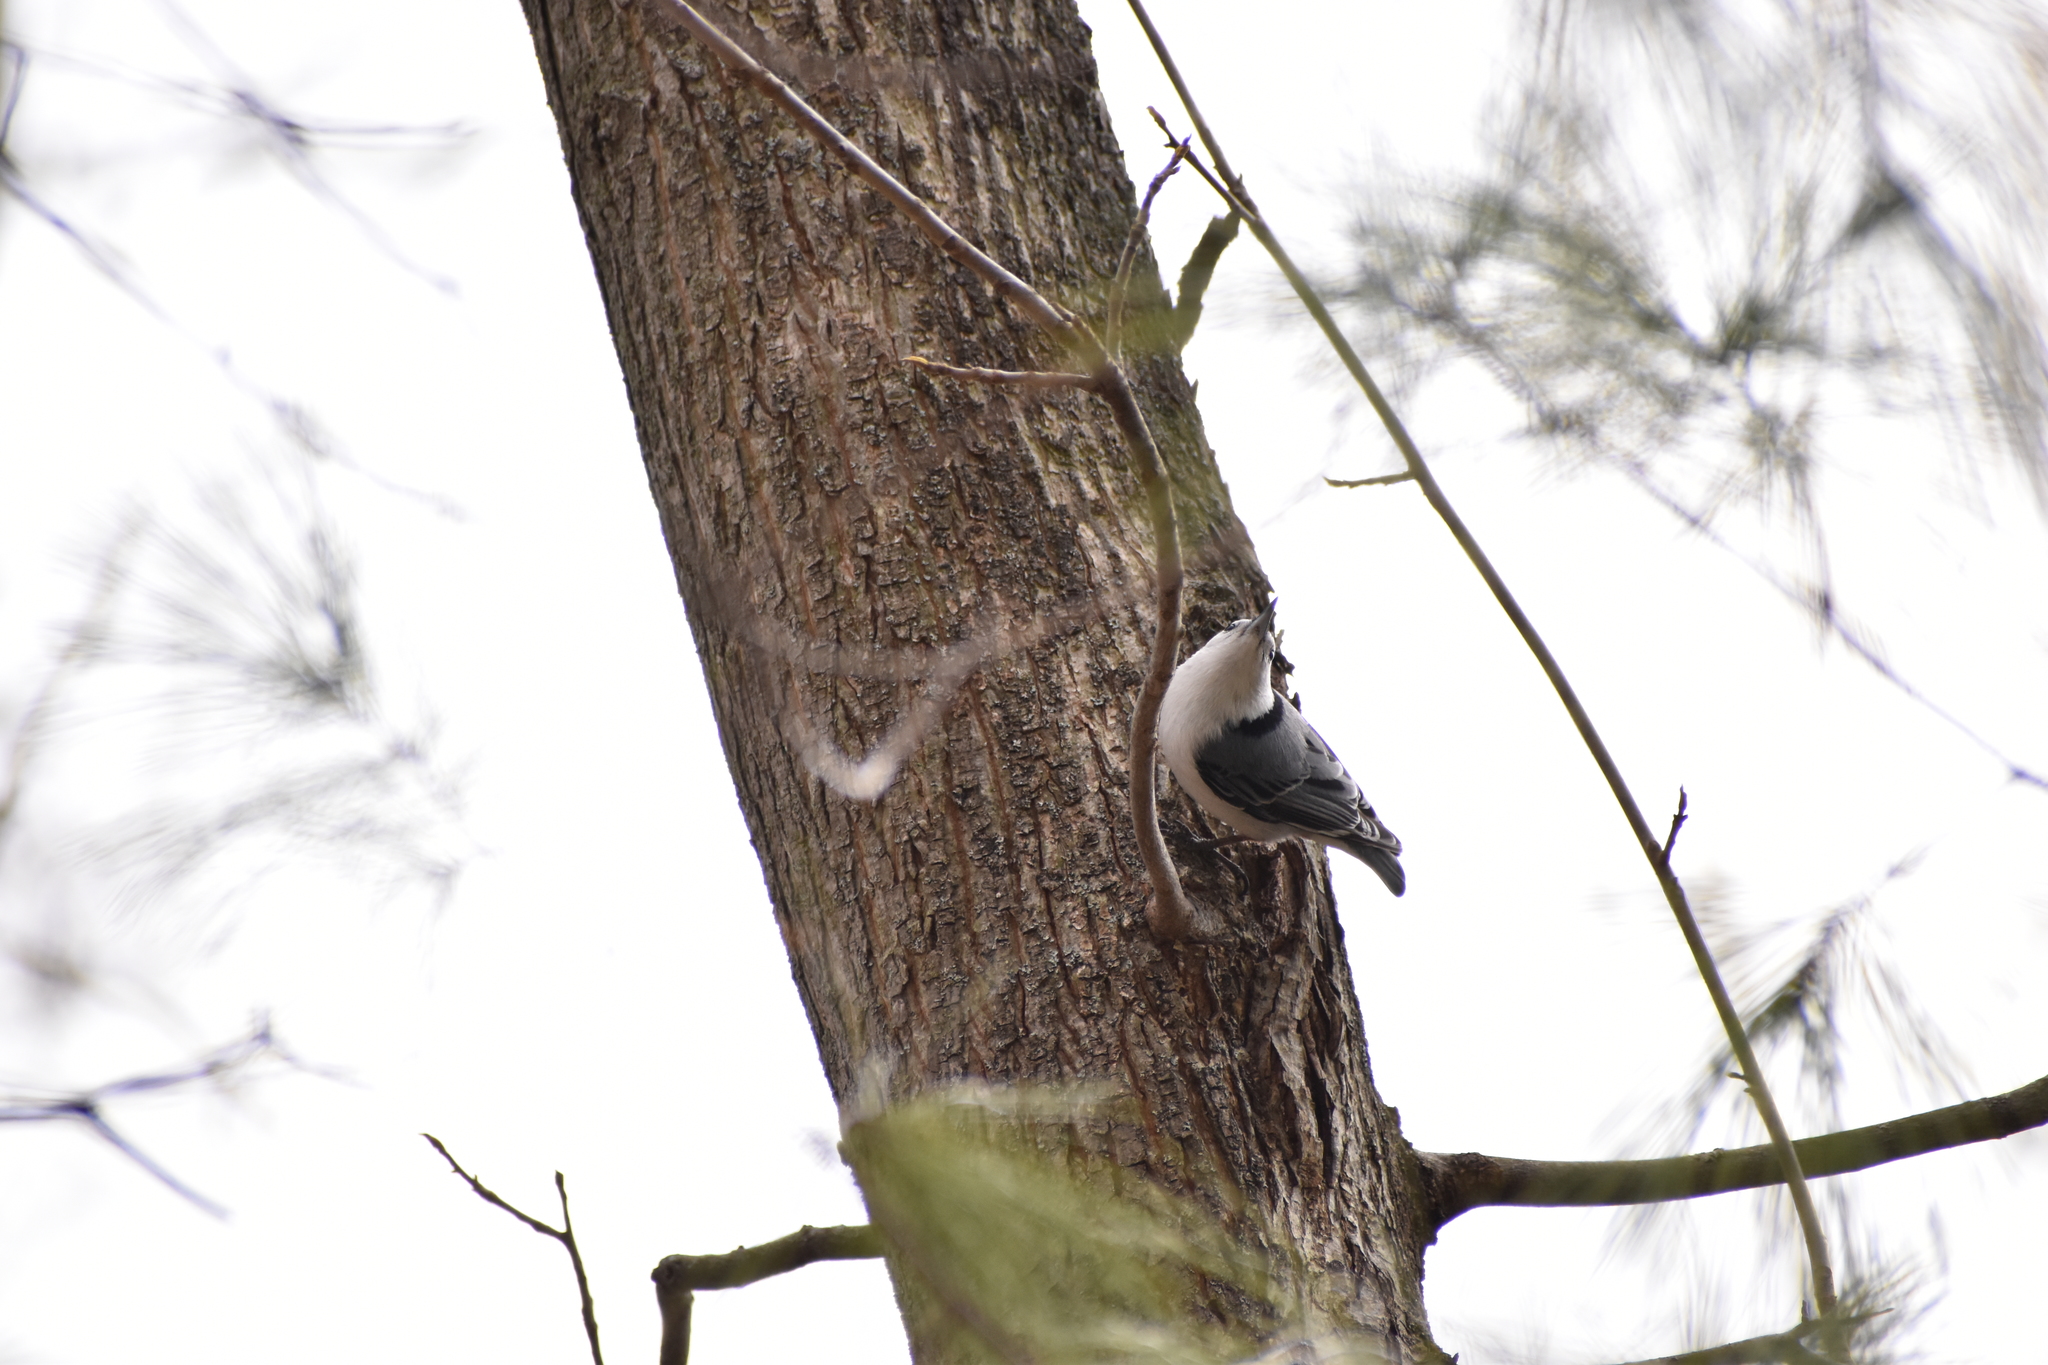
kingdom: Animalia
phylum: Chordata
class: Aves
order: Passeriformes
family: Sittidae
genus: Sitta
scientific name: Sitta carolinensis
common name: White-breasted nuthatch
